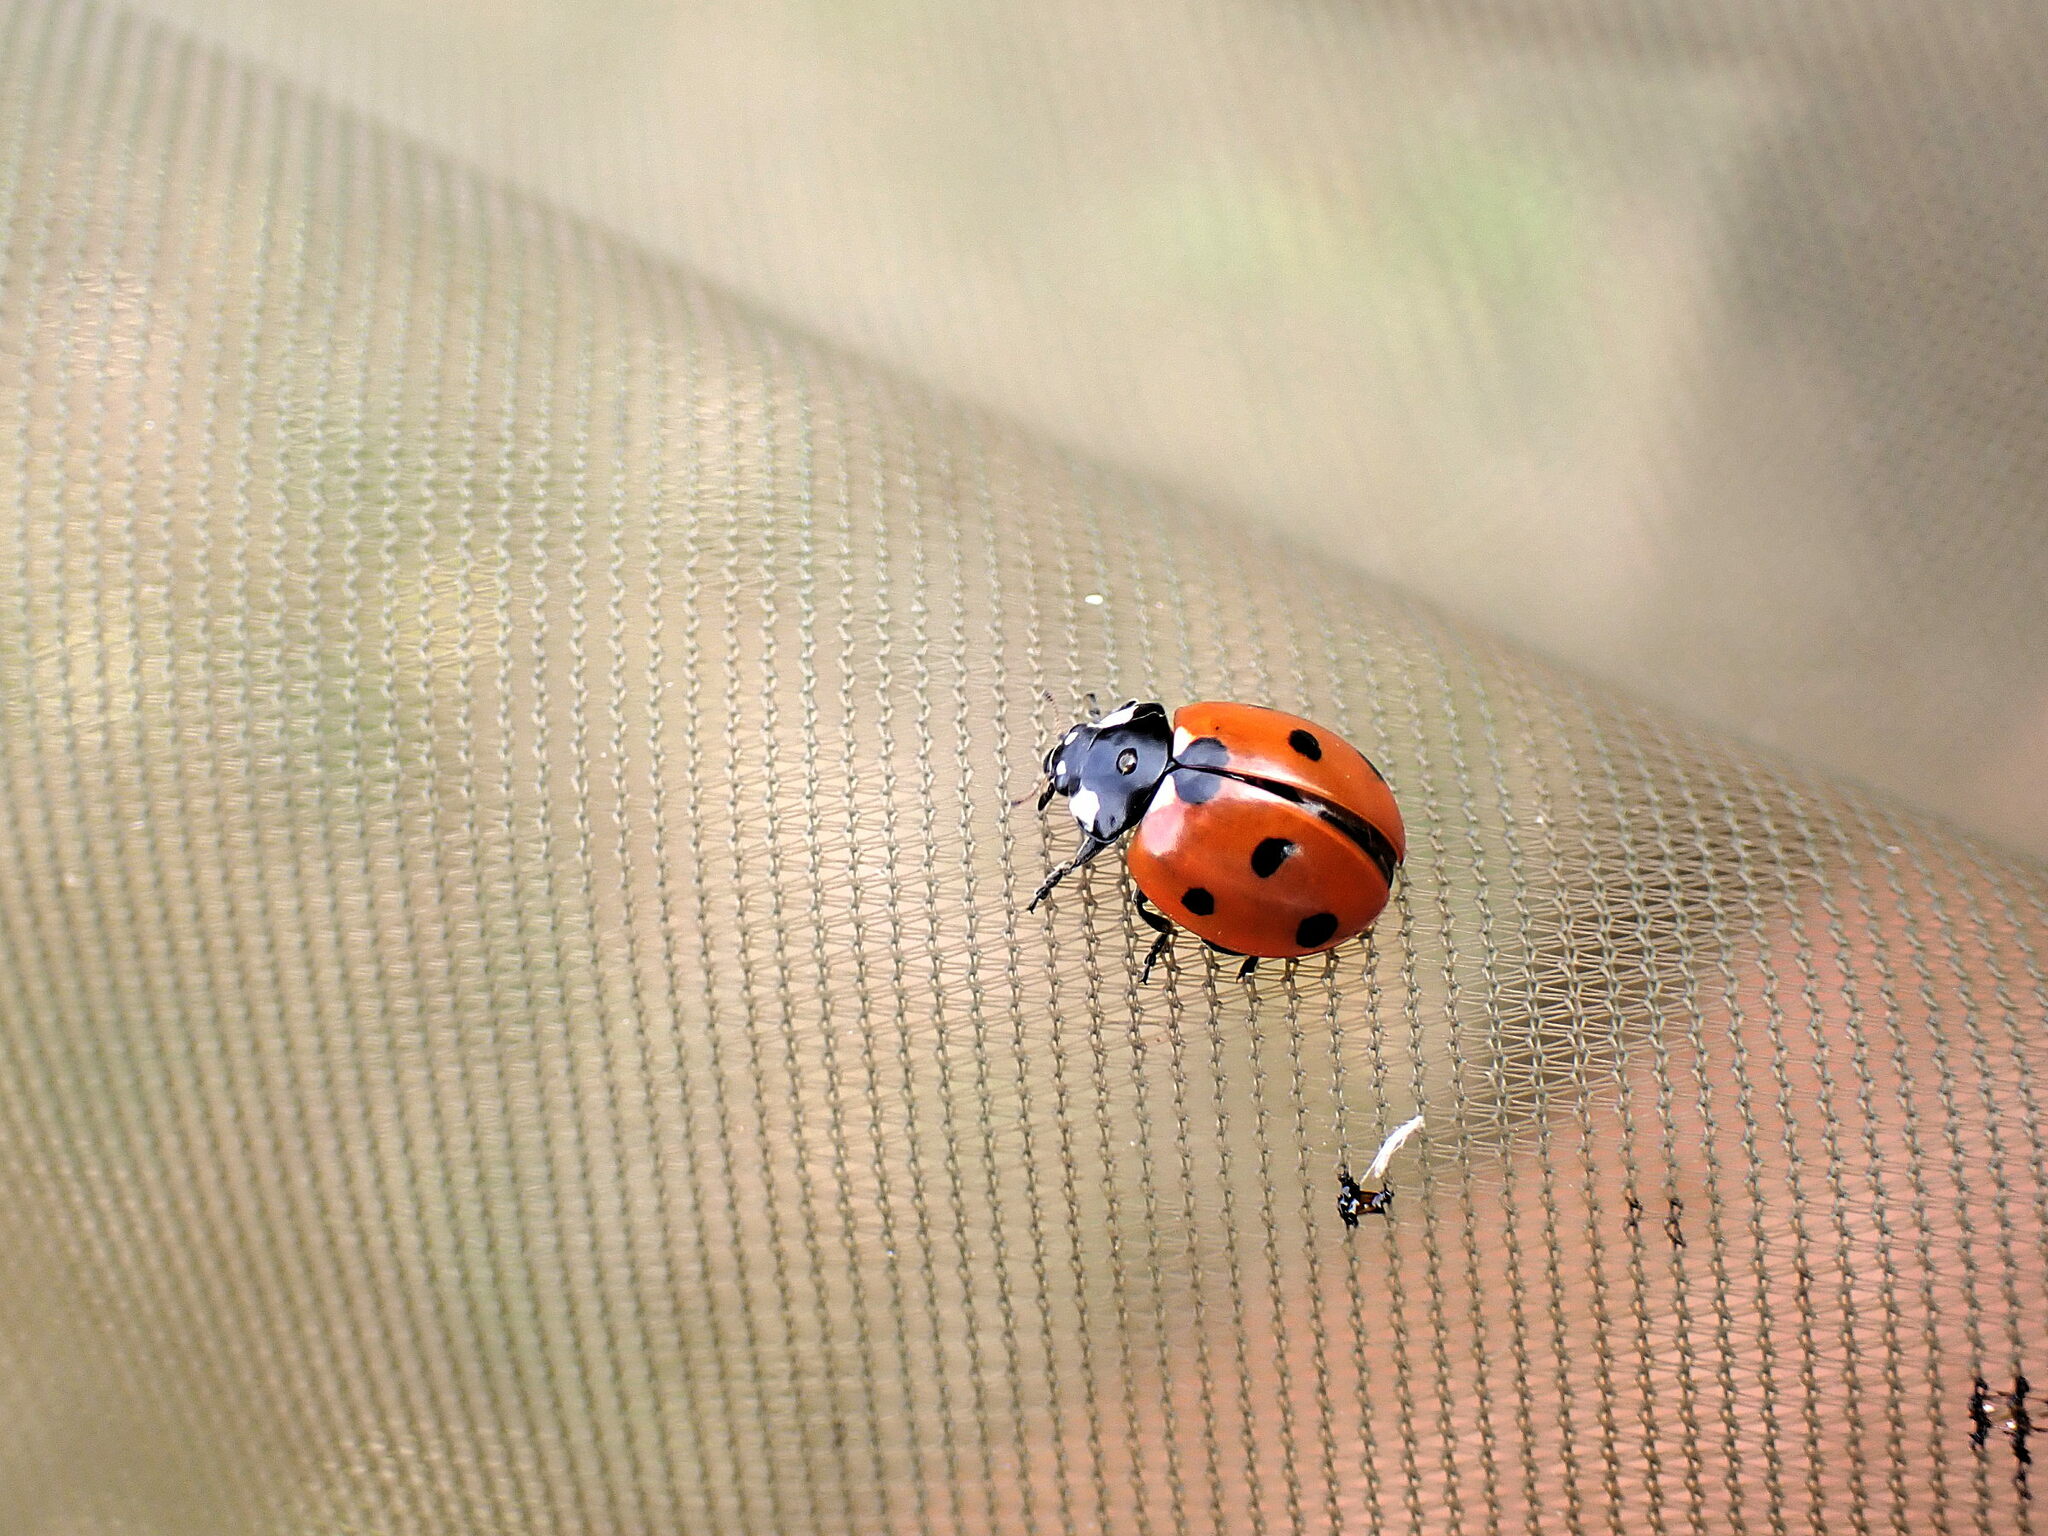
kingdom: Animalia
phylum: Arthropoda
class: Insecta
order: Coleoptera
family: Coccinellidae
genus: Coccinella
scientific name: Coccinella septempunctata
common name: Sevenspotted lady beetle
